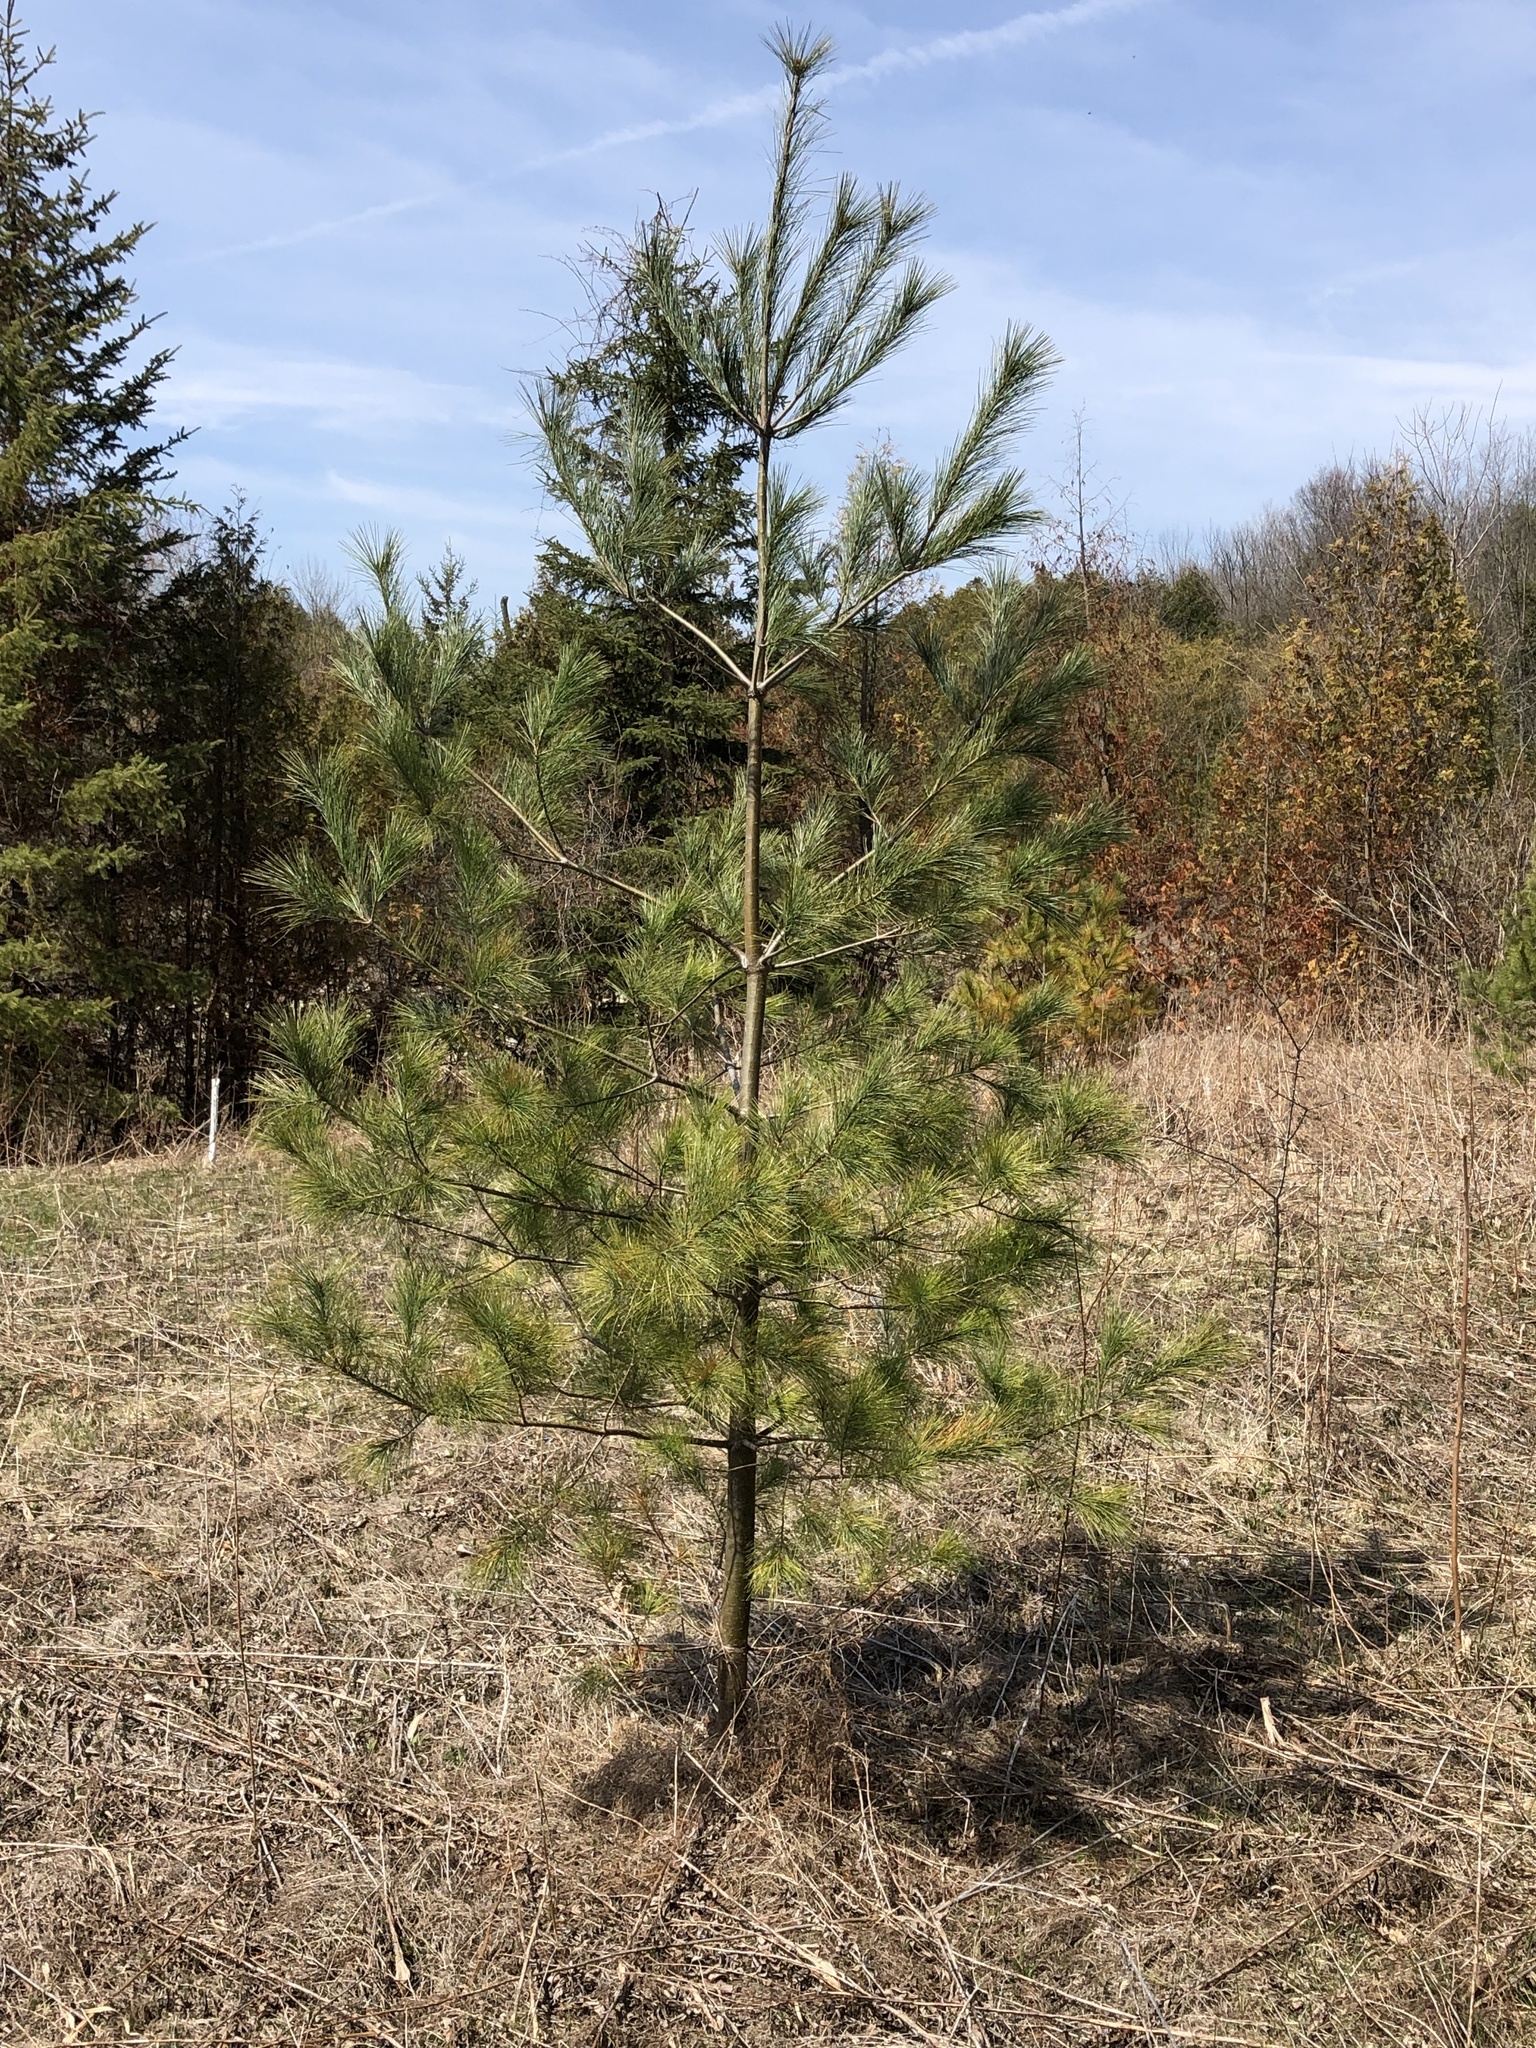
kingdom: Plantae
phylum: Tracheophyta
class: Pinopsida
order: Pinales
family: Pinaceae
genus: Pinus
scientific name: Pinus strobus
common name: Weymouth pine
